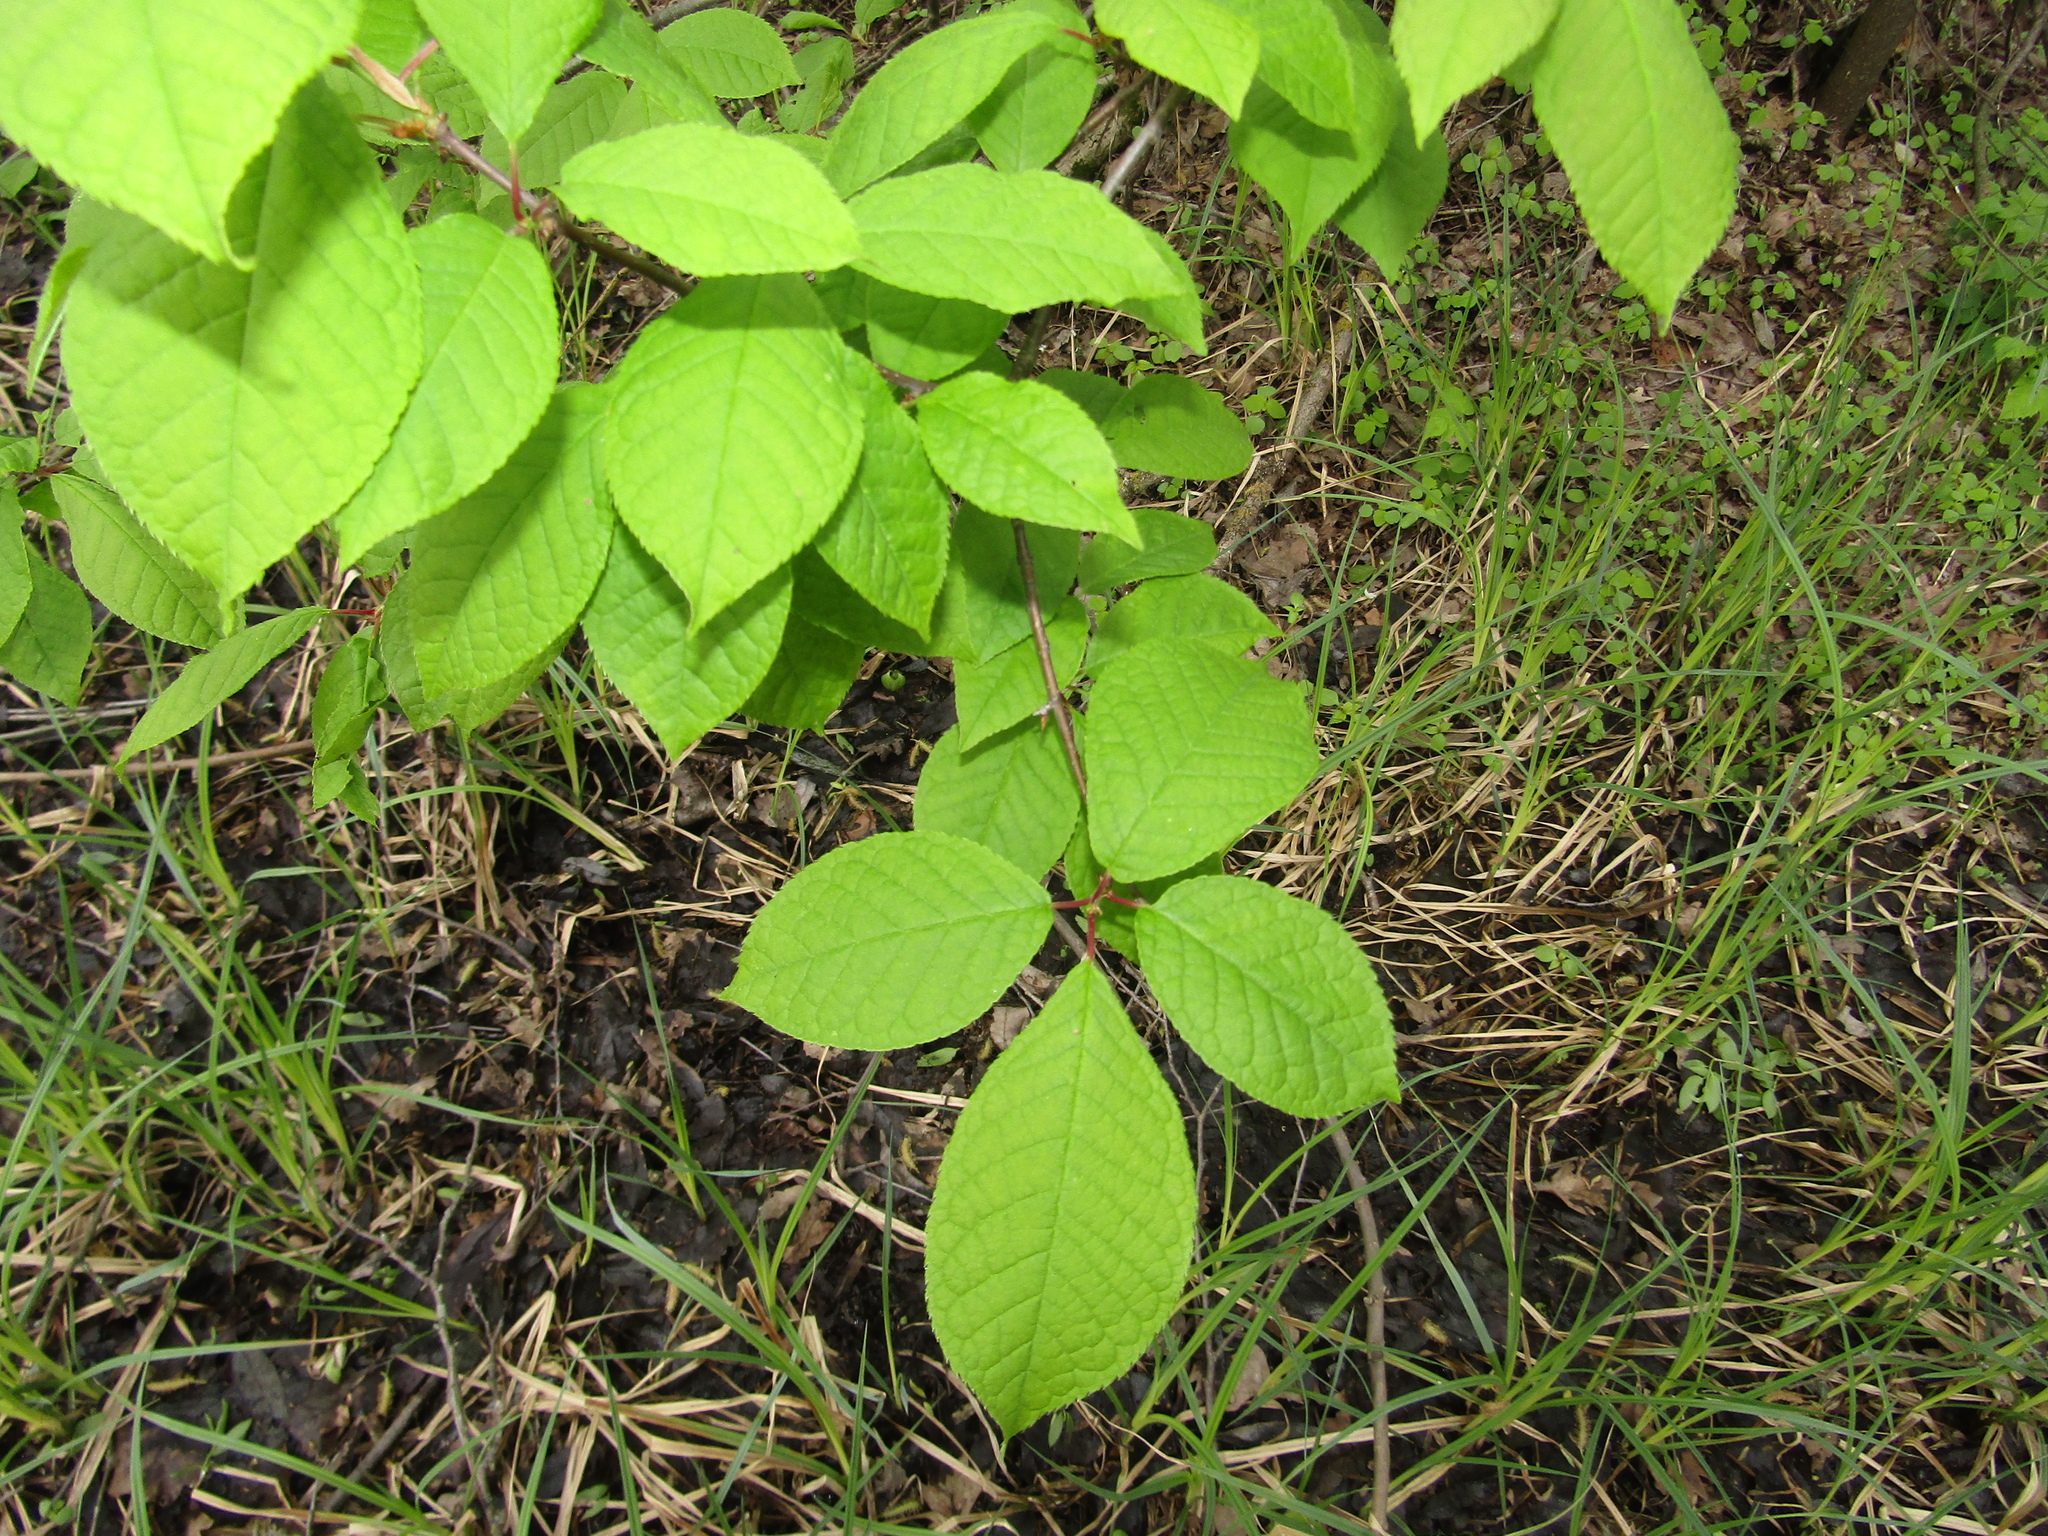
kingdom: Plantae
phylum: Tracheophyta
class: Magnoliopsida
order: Rosales
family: Rosaceae
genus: Prunus
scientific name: Prunus padus
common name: Bird cherry
